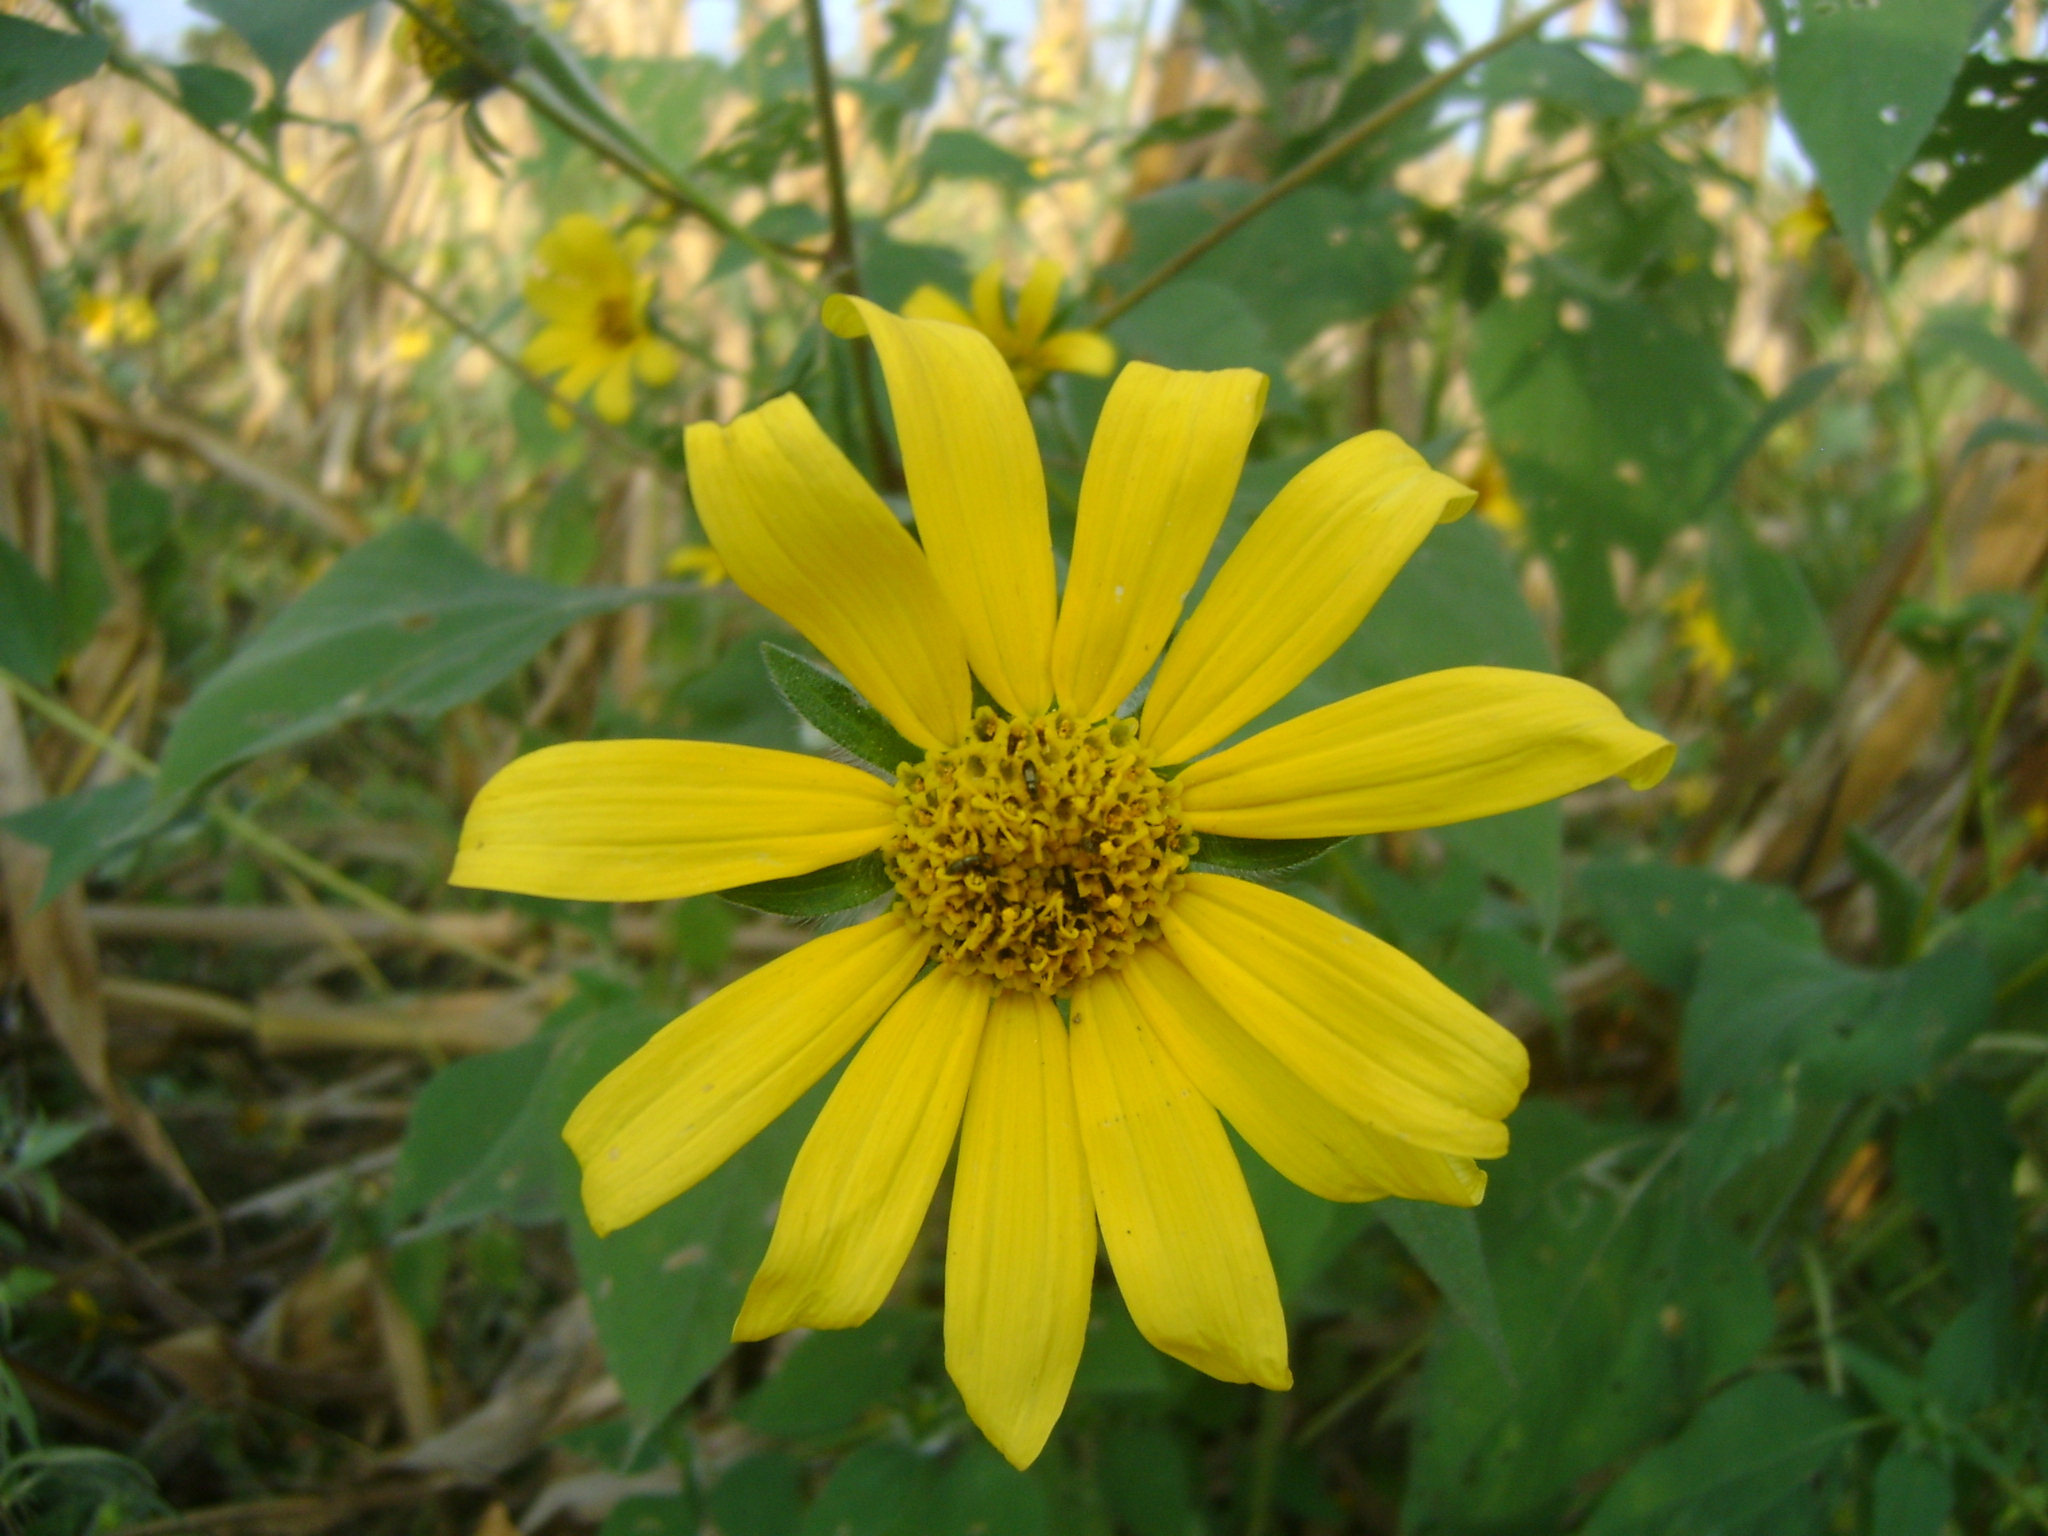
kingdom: Plantae
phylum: Tracheophyta
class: Magnoliopsida
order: Asterales
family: Asteraceae
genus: Tithonia
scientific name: Tithonia tubaeformis
